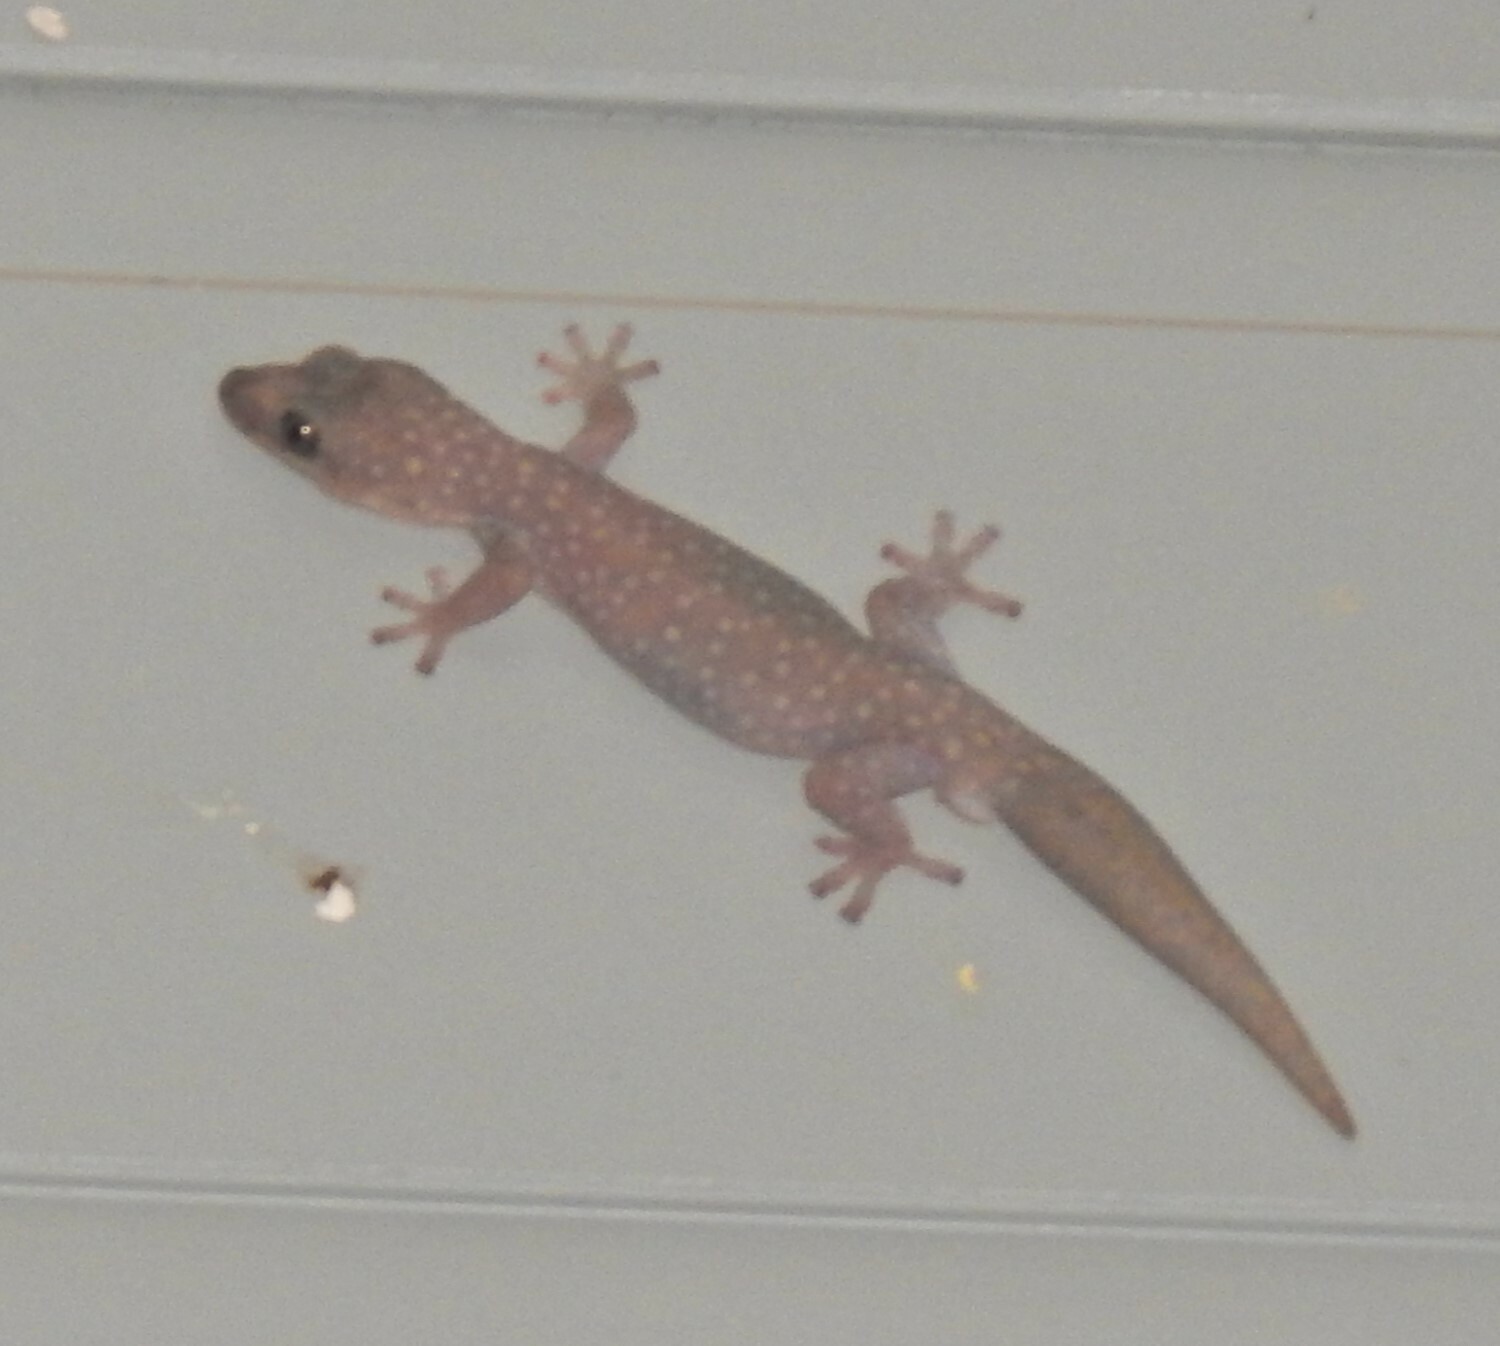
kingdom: Animalia
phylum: Chordata
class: Squamata
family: Diplodactylidae
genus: Oedura
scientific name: Oedura tryoni
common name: Southern spotted velvet gecko
